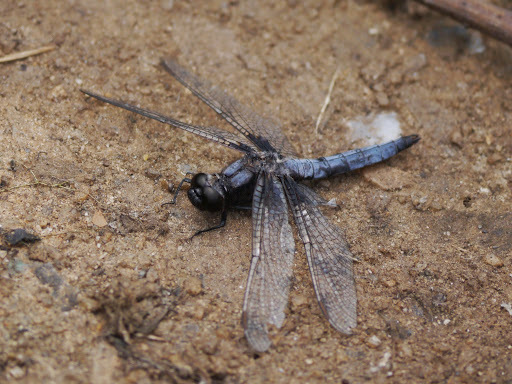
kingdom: Animalia
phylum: Arthropoda
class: Insecta
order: Odonata
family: Libellulidae
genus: Ladona
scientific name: Ladona deplanata
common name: Blue corporal
